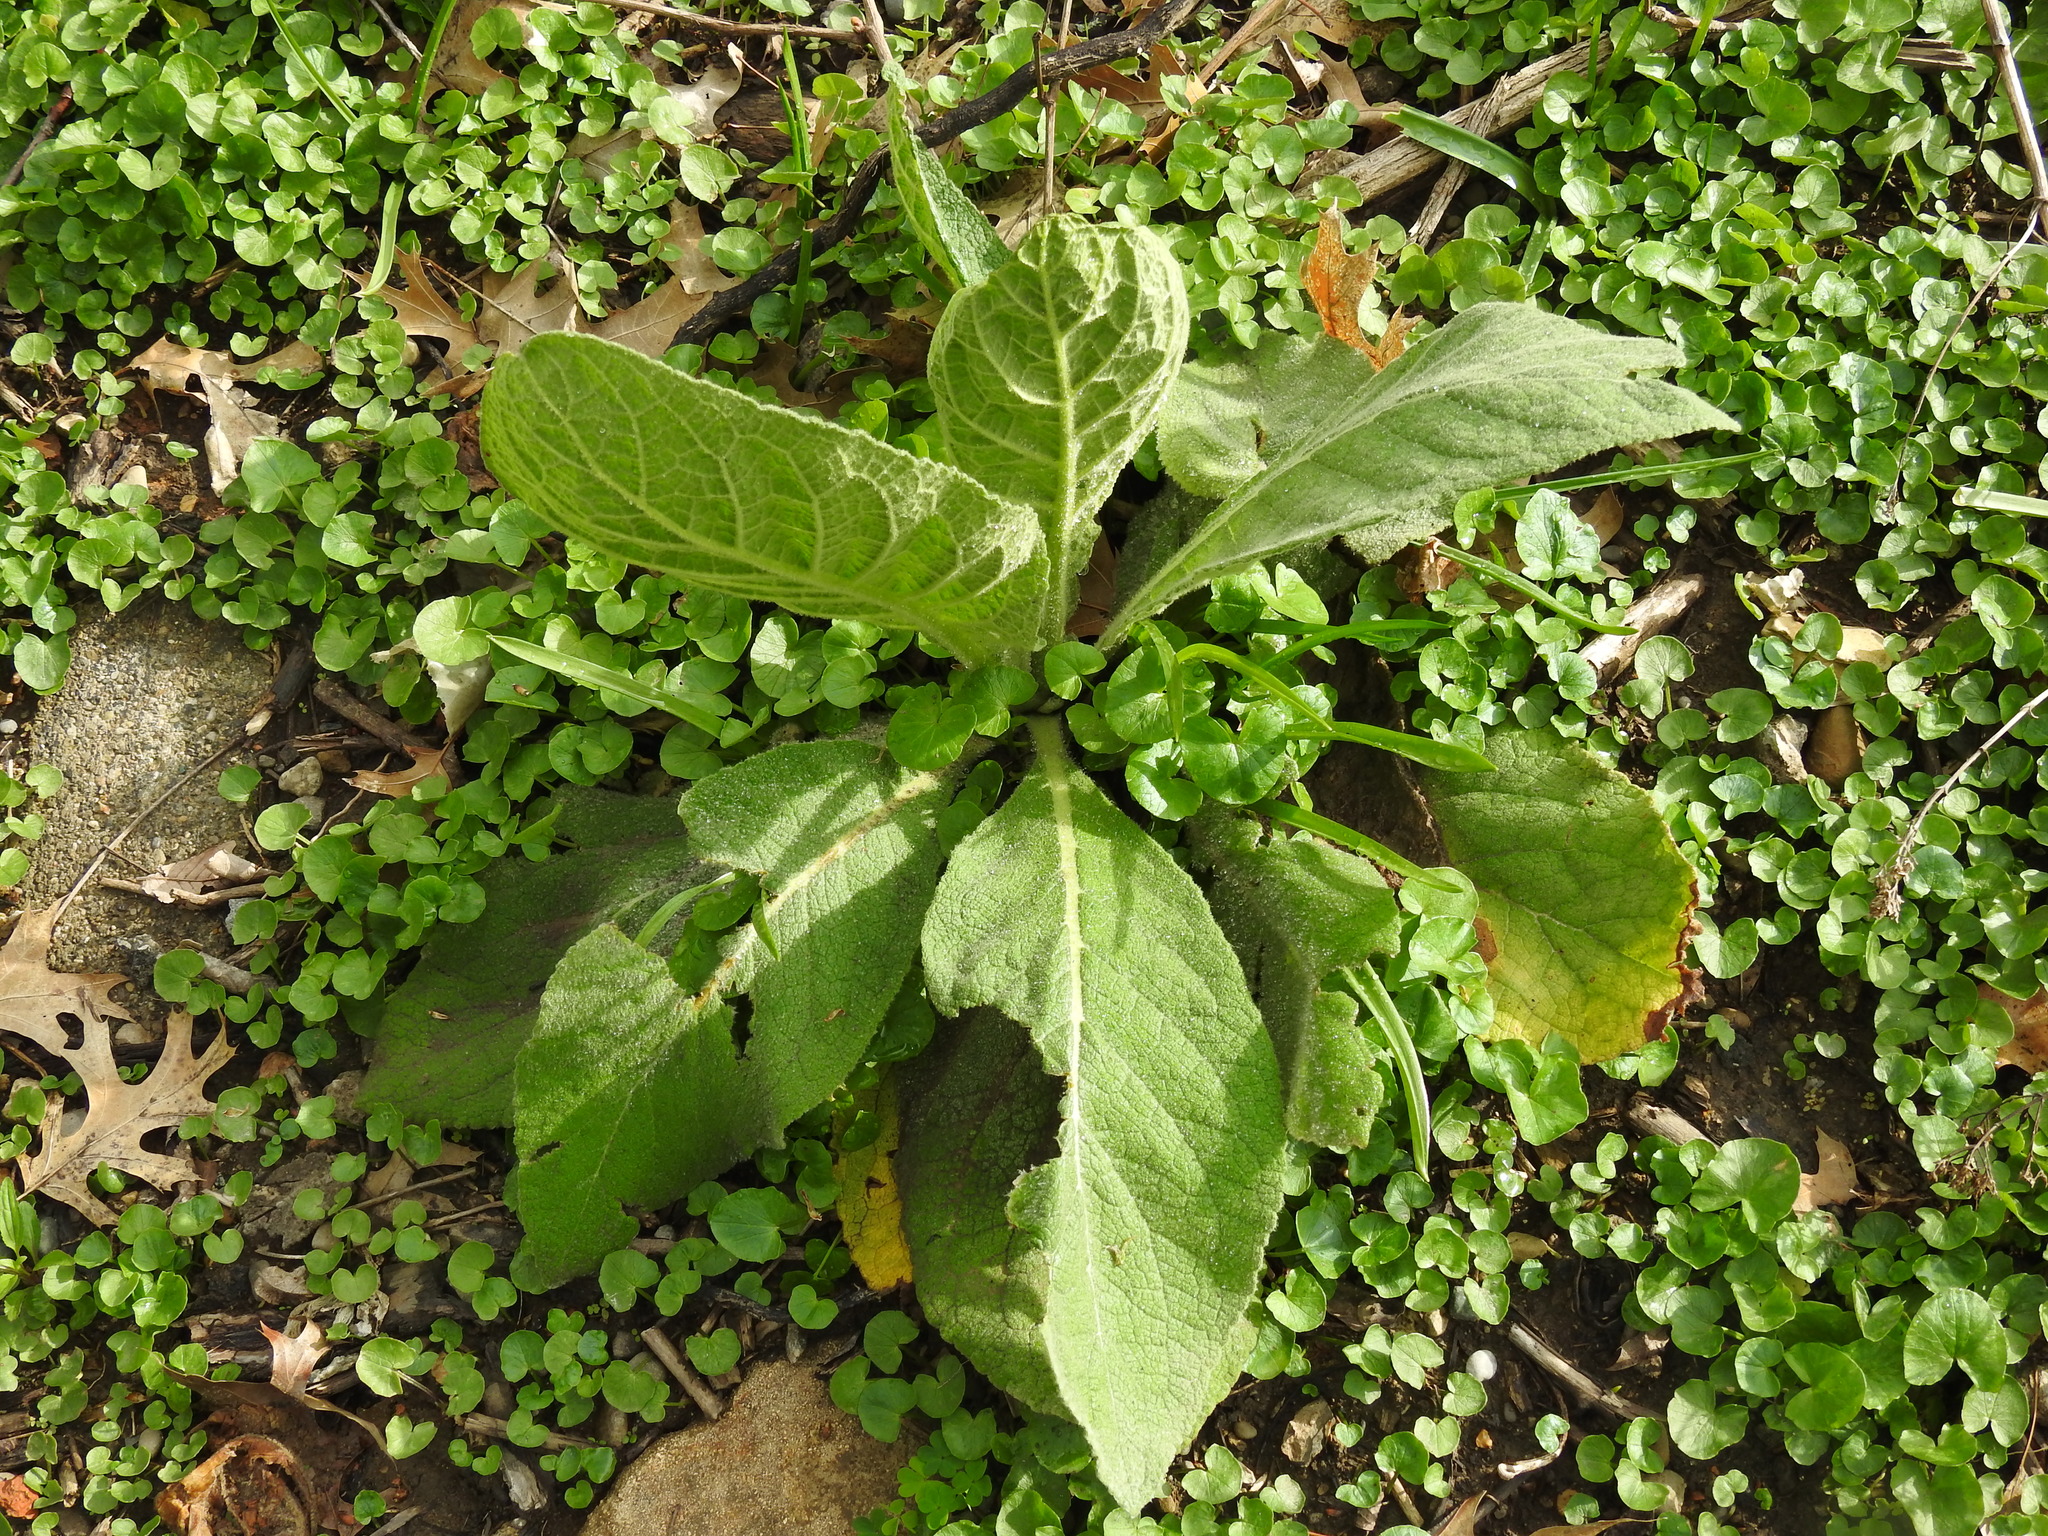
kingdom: Plantae
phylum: Tracheophyta
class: Magnoliopsida
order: Lamiales
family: Scrophulariaceae
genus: Verbascum
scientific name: Verbascum thapsus
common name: Common mullein
